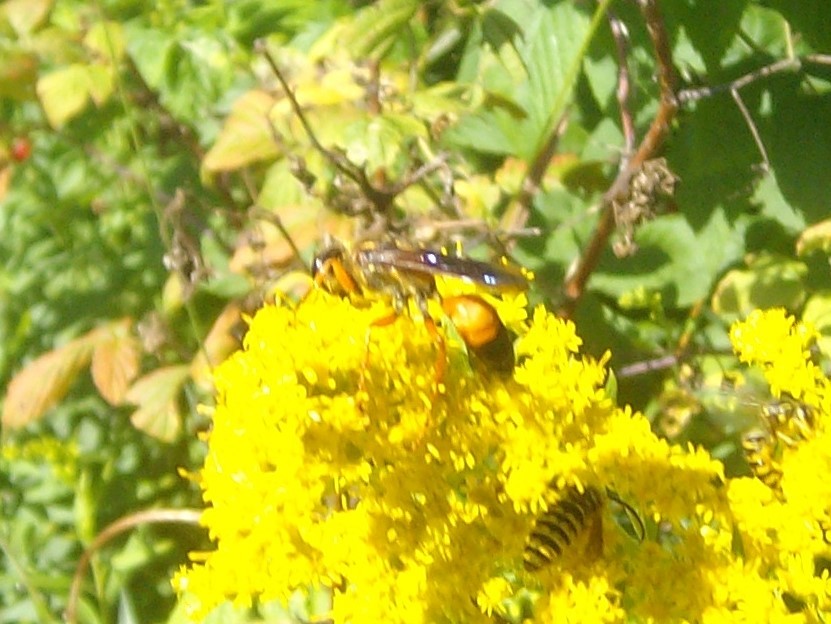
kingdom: Animalia
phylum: Arthropoda
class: Insecta
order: Hymenoptera
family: Sphecidae
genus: Sphex
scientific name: Sphex ichneumoneus
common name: Great golden digger wasp
